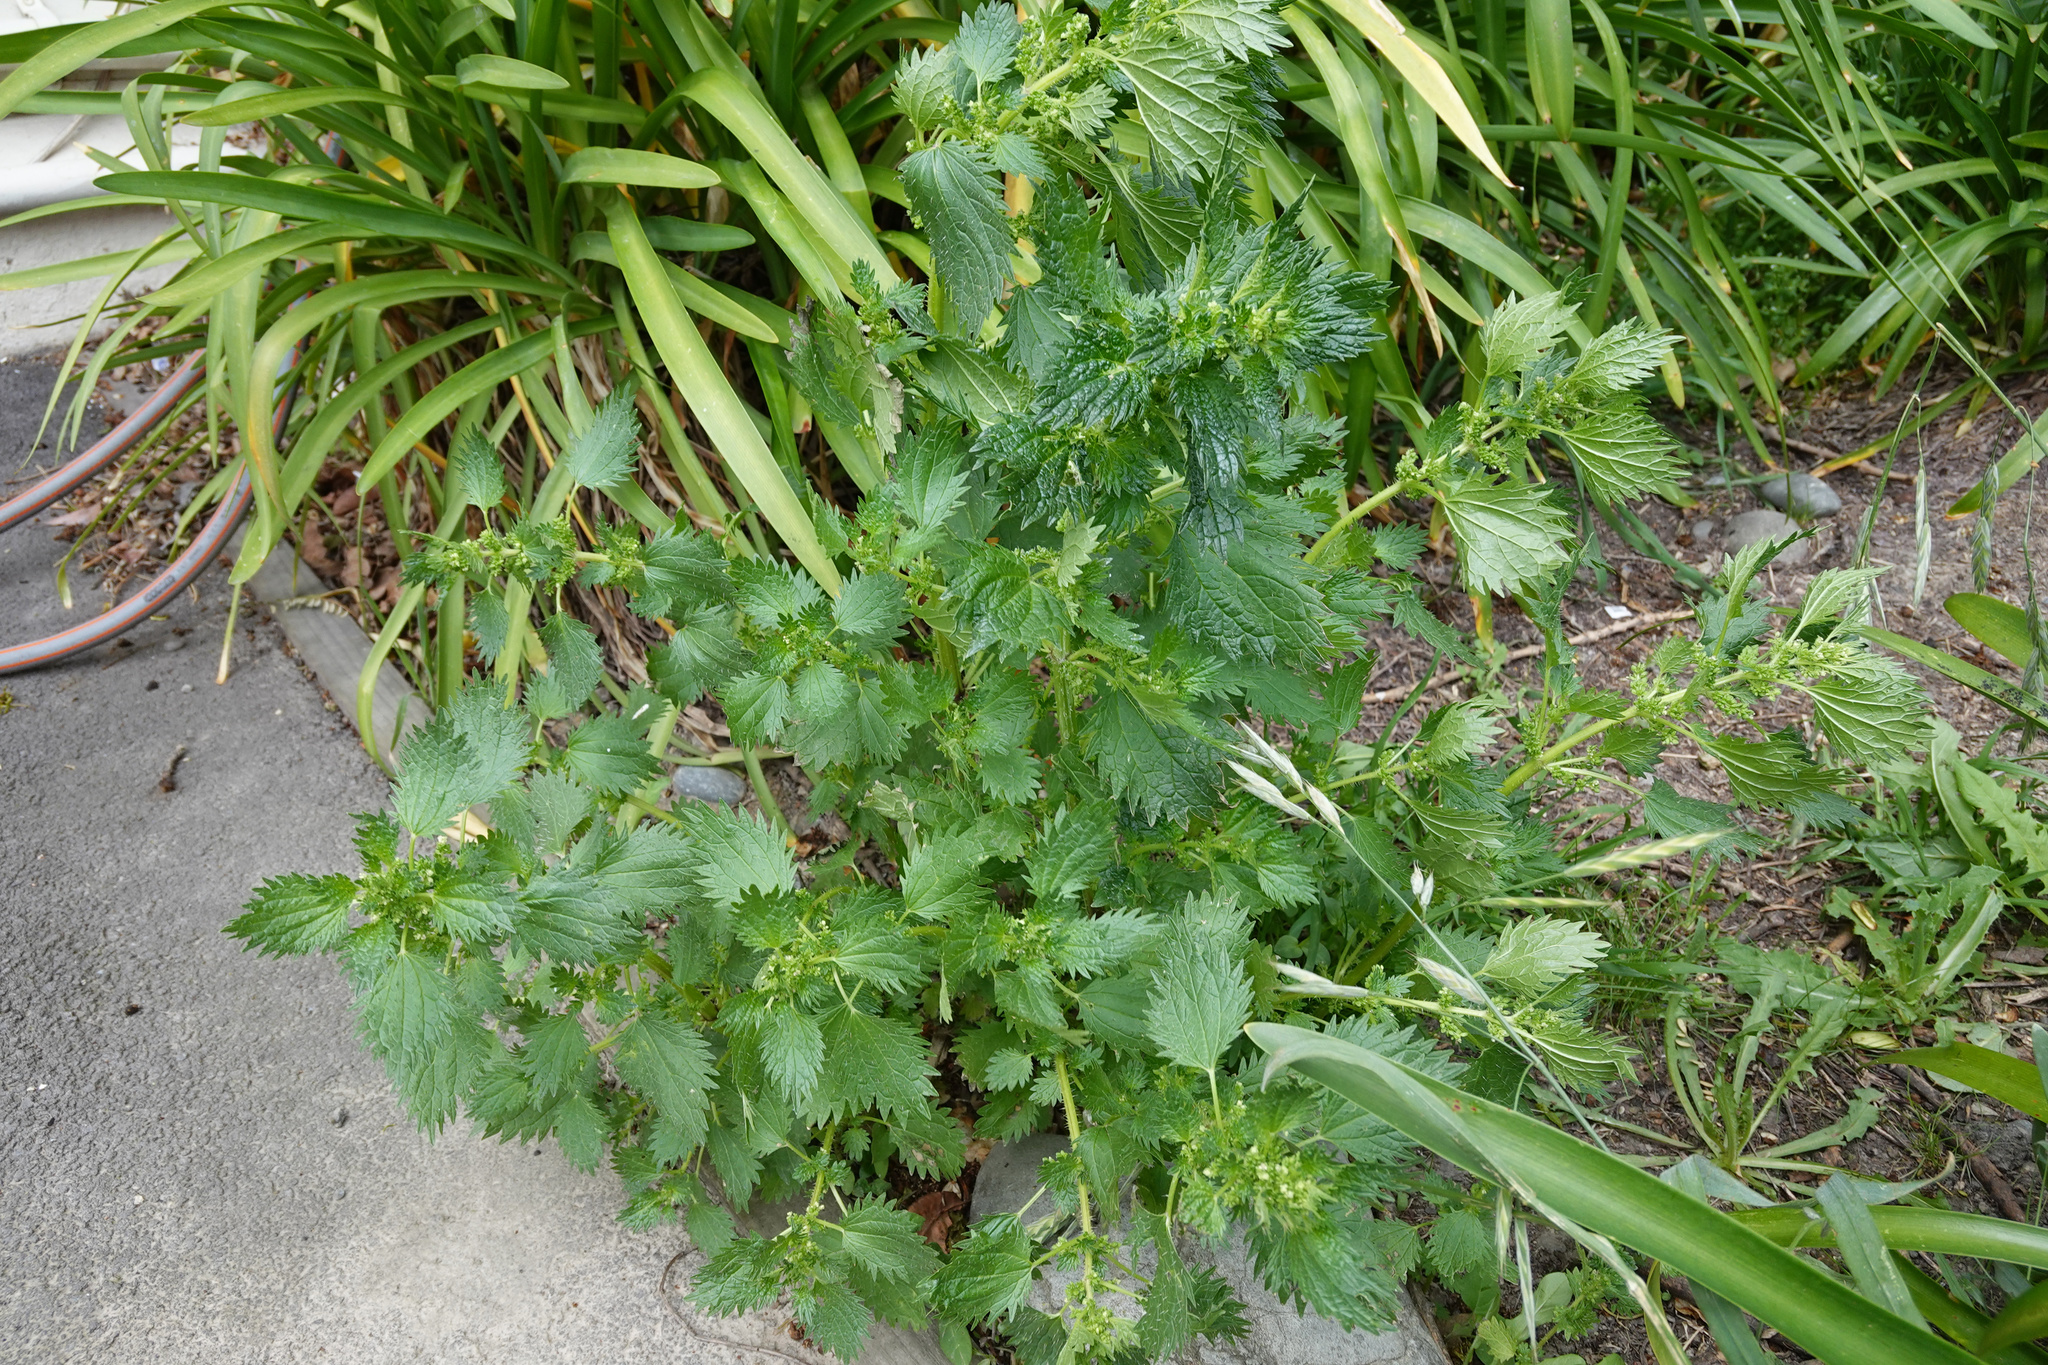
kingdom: Plantae
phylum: Tracheophyta
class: Magnoliopsida
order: Rosales
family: Urticaceae
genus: Urtica
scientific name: Urtica urens
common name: Dwarf nettle
